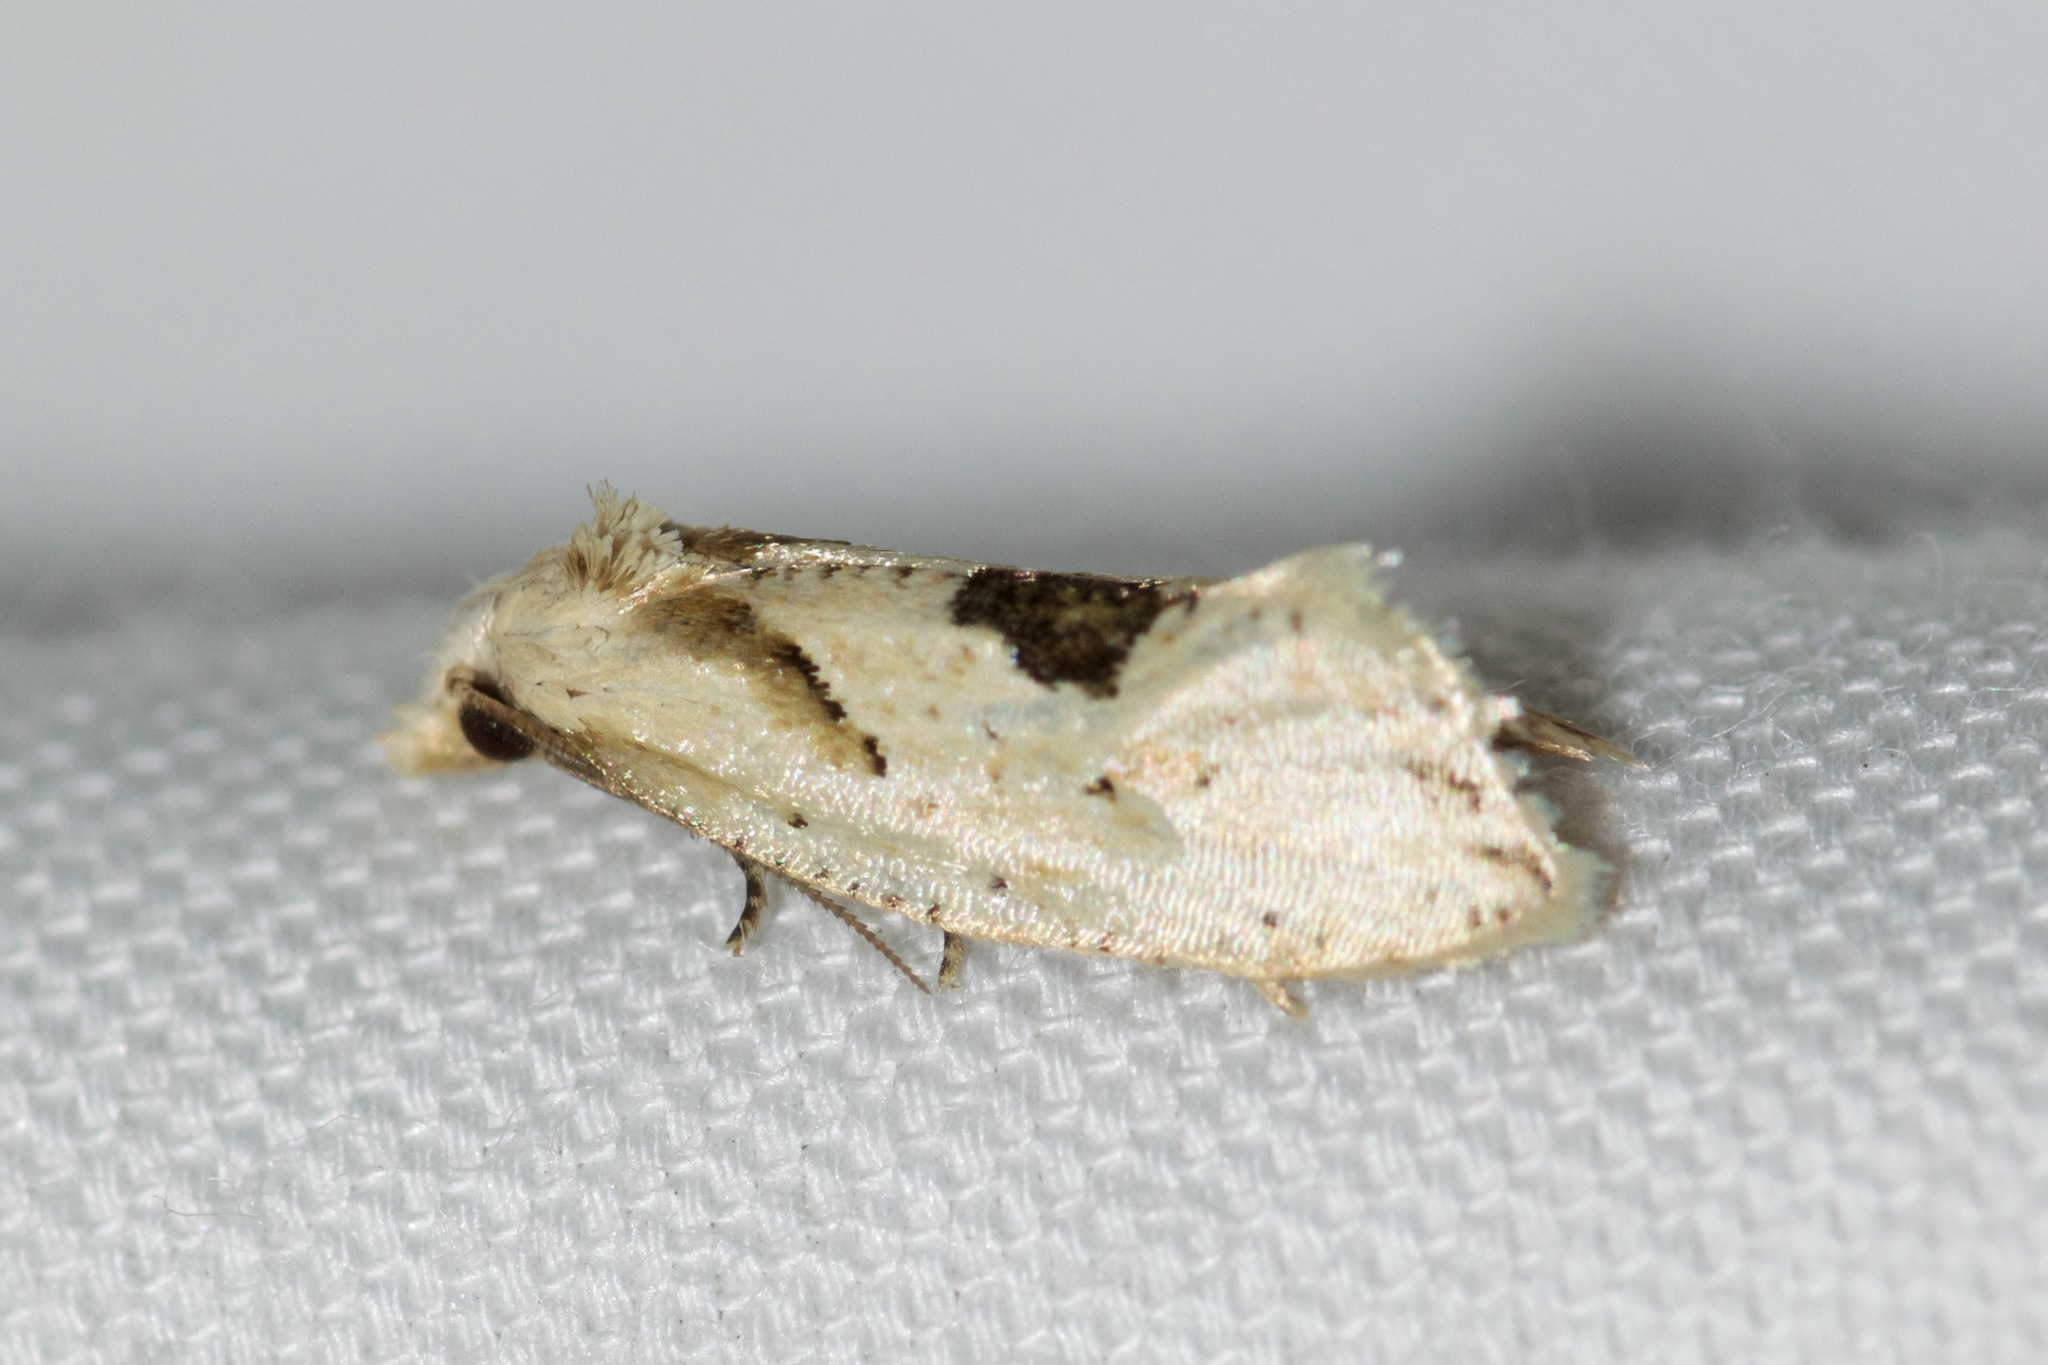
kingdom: Animalia
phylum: Arthropoda
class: Insecta
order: Lepidoptera
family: Tortricidae
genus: Aethes
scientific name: Aethes mymara
